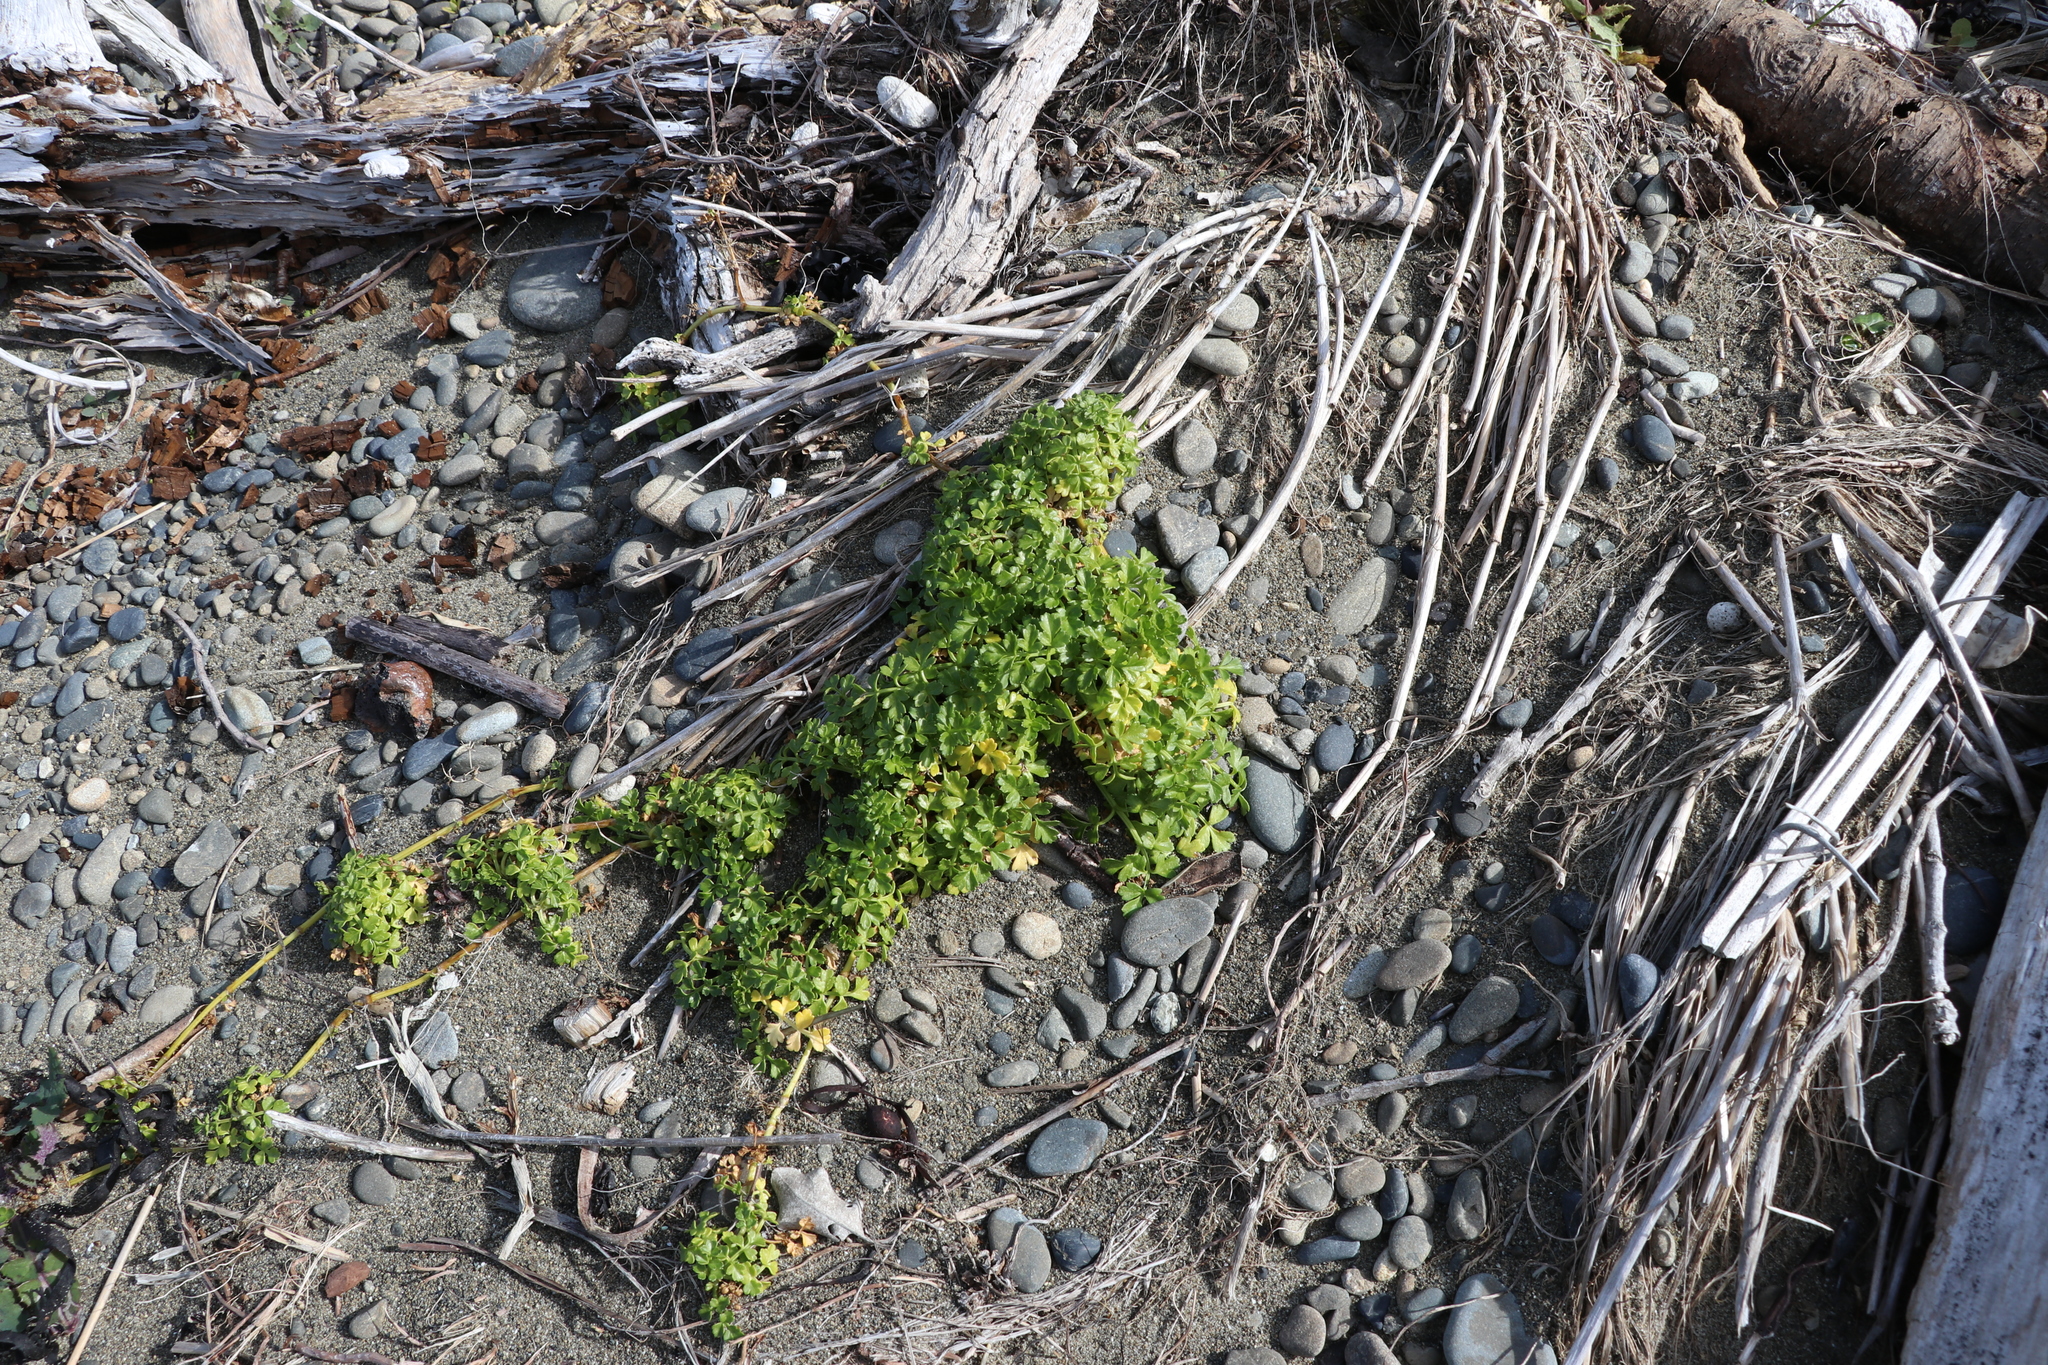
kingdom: Plantae
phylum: Tracheophyta
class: Magnoliopsida
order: Brassicales
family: Brassicaceae
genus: Lepidium
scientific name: Lepidium didymum
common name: Lesser swinecress
